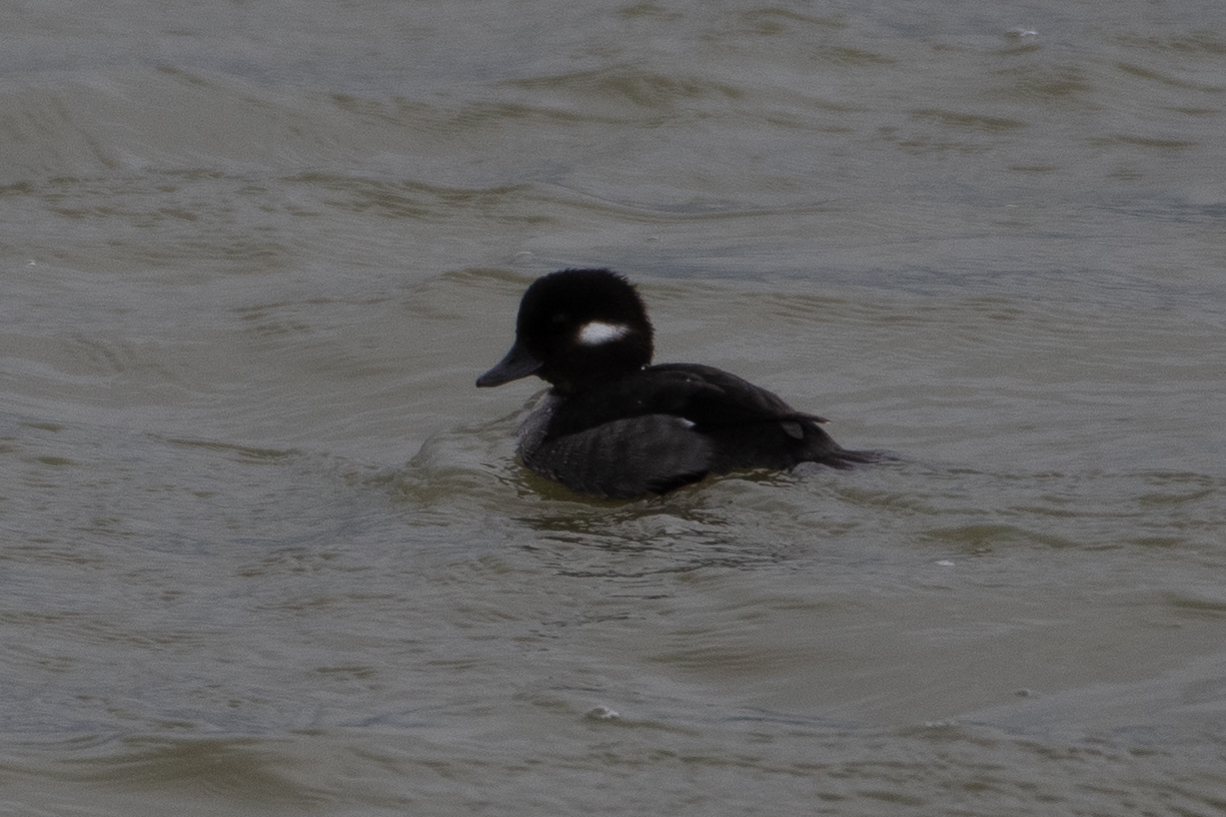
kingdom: Animalia
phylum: Chordata
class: Aves
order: Anseriformes
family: Anatidae
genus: Bucephala
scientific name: Bucephala albeola
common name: Bufflehead
